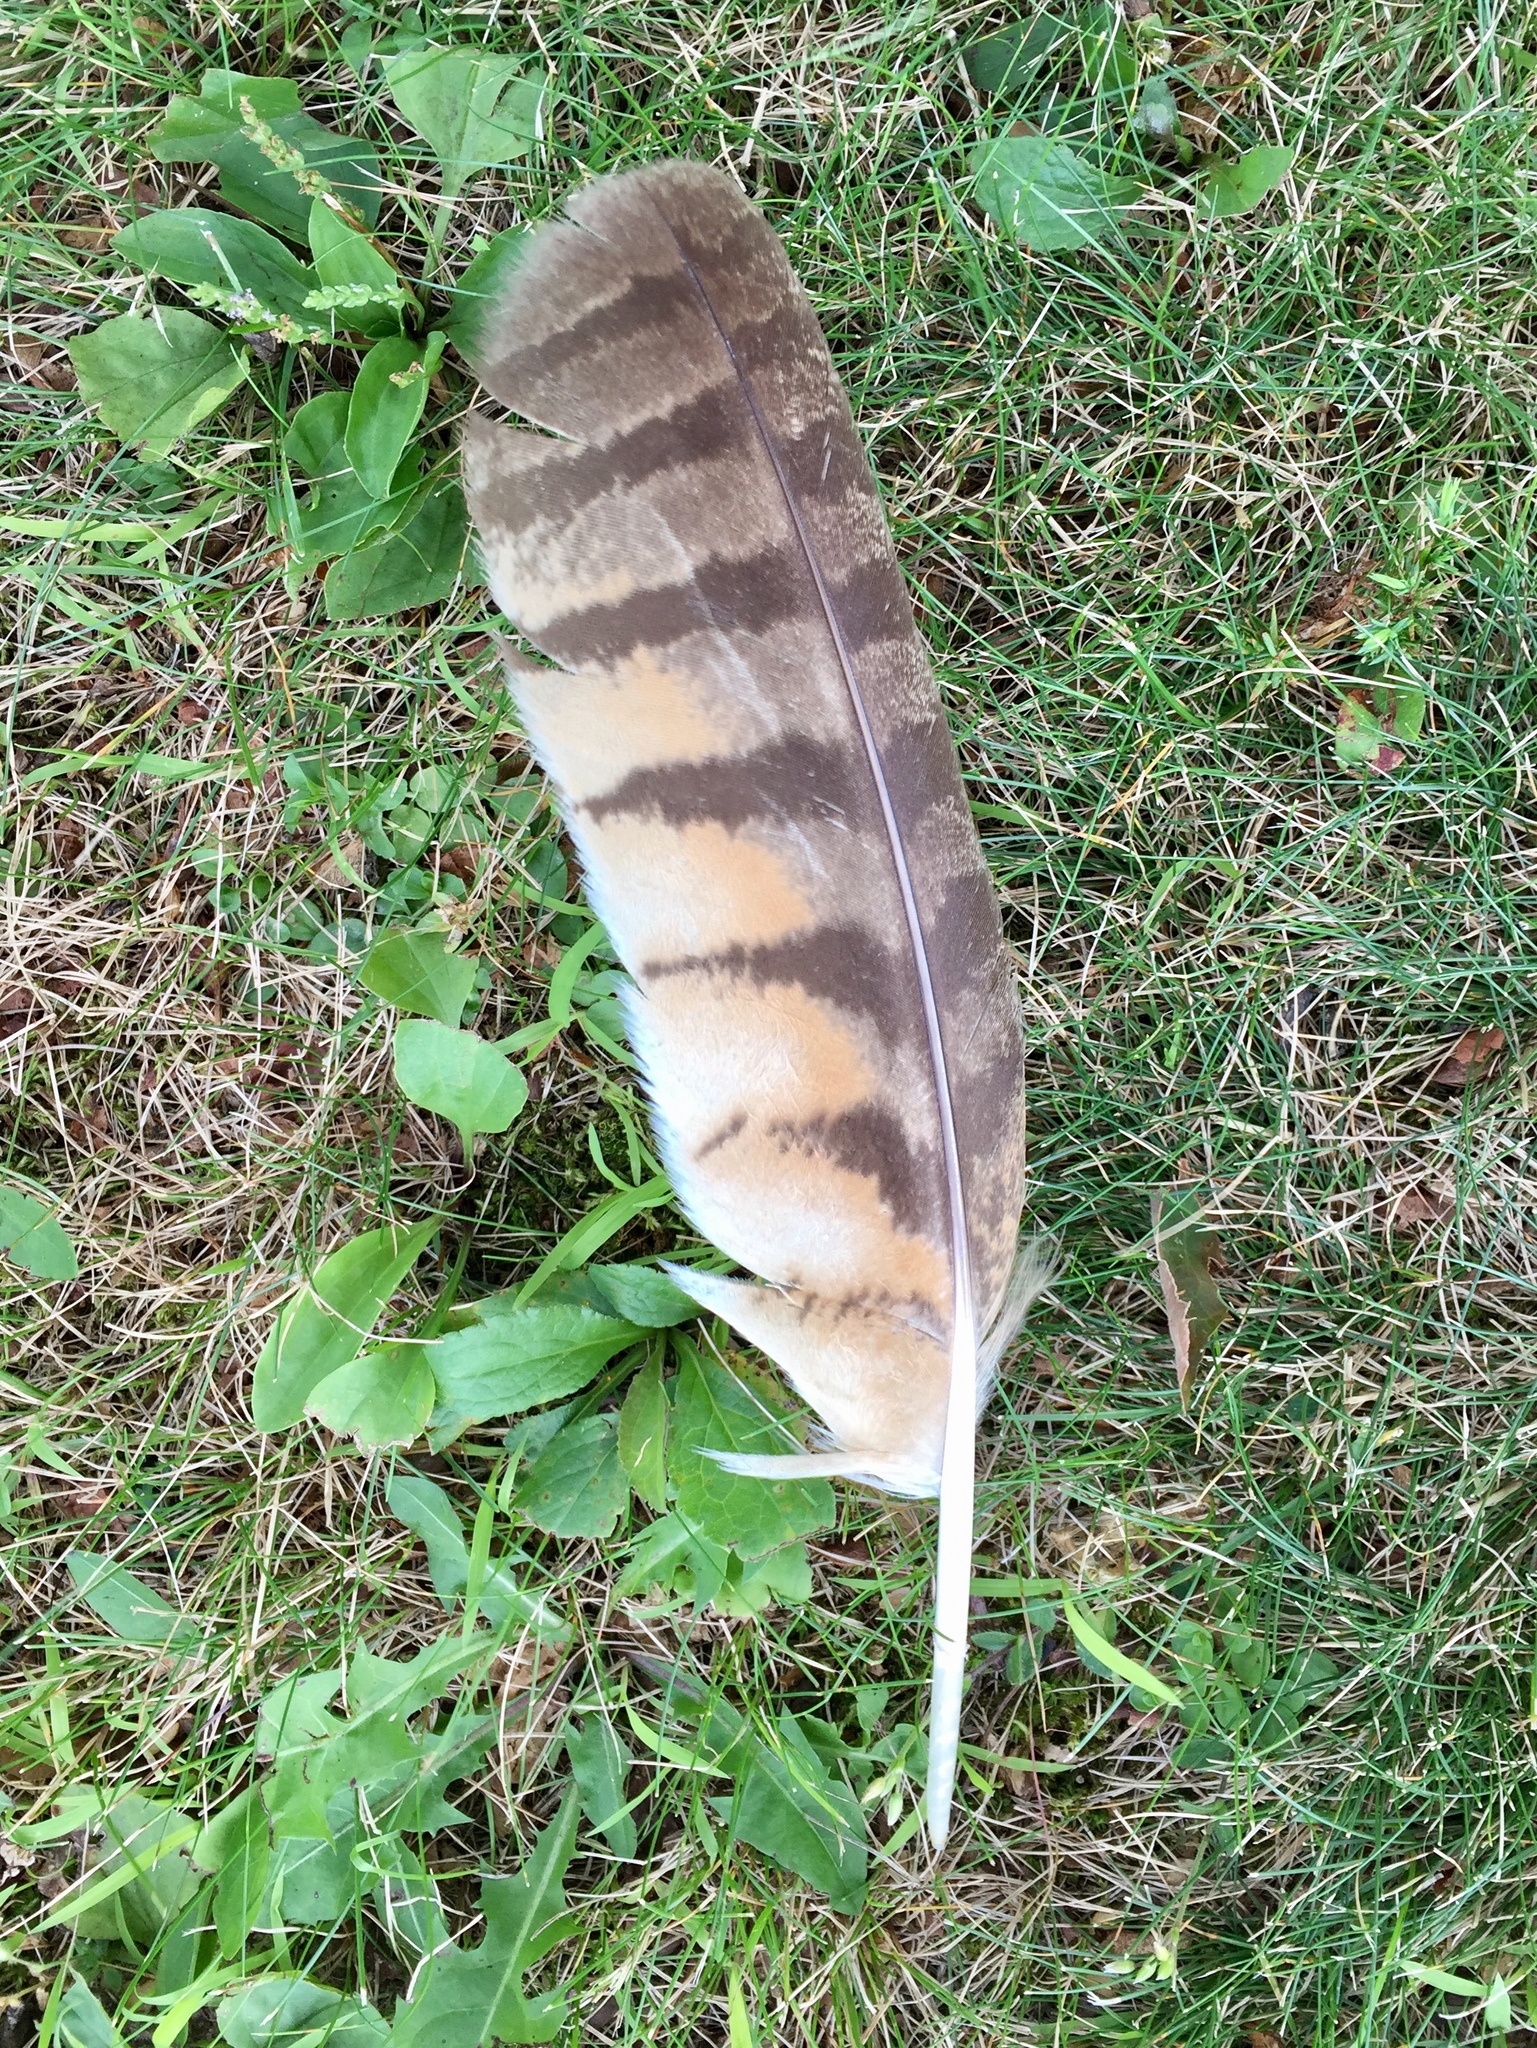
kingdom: Animalia
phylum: Chordata
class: Aves
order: Strigiformes
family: Strigidae
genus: Bubo
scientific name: Bubo virginianus
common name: Great horned owl
